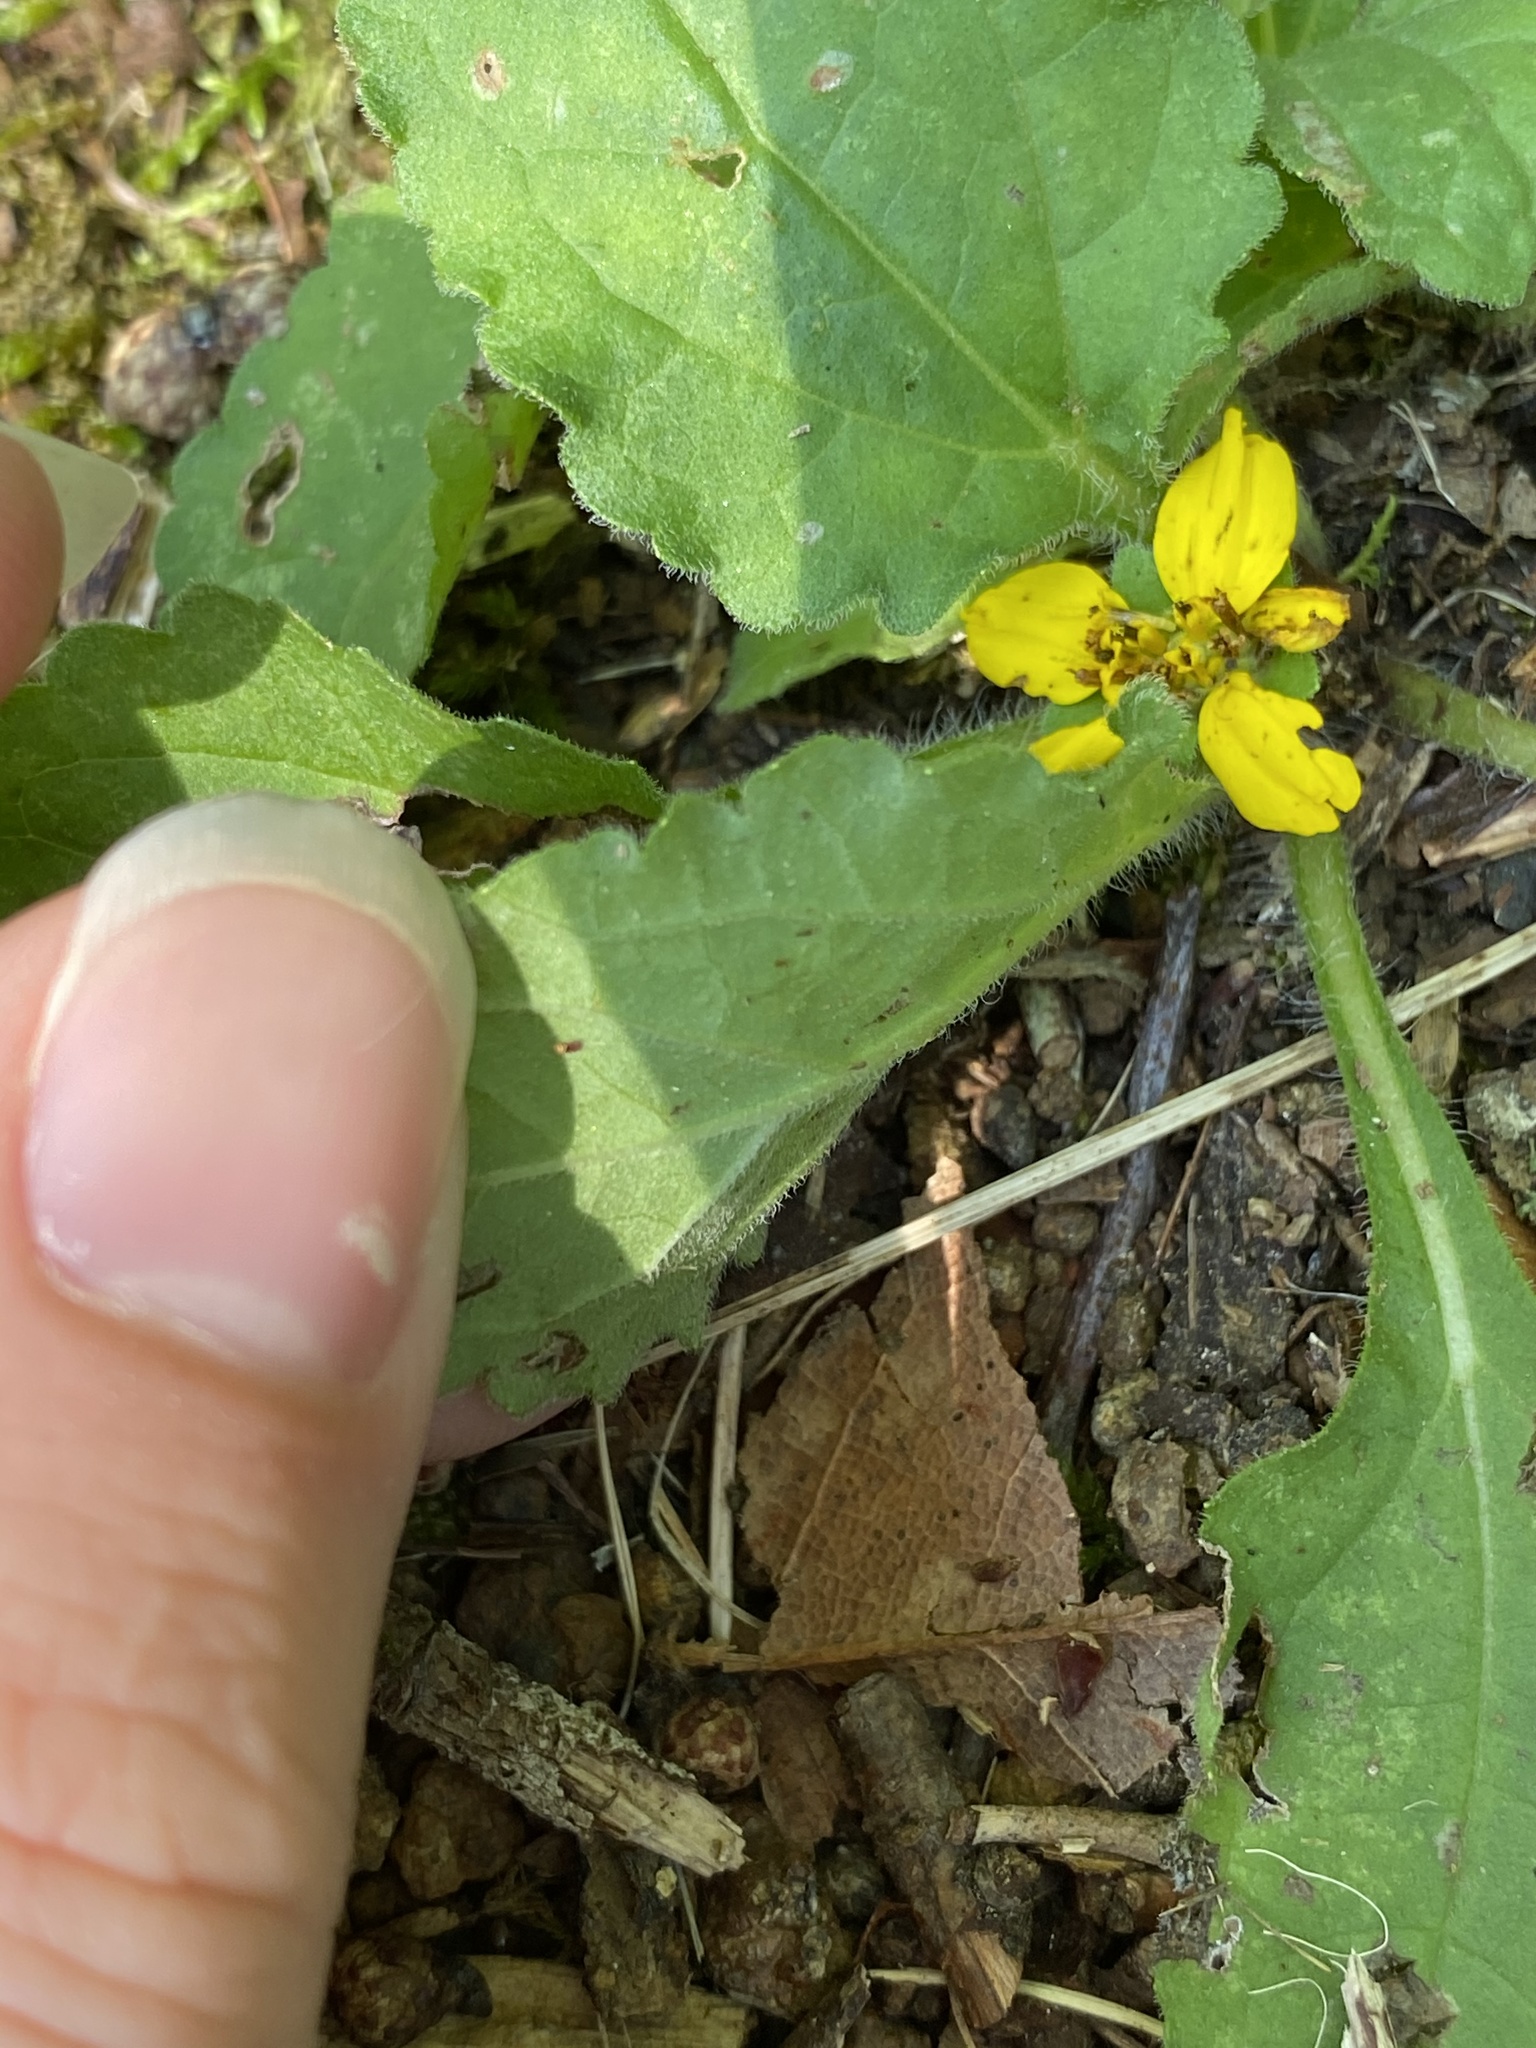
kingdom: Plantae
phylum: Tracheophyta
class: Magnoliopsida
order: Asterales
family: Asteraceae
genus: Chrysogonum
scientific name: Chrysogonum virginianum
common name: Golden-knee
